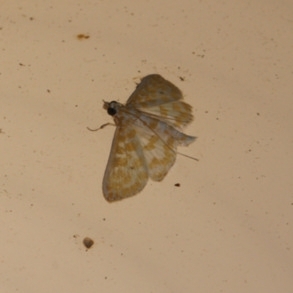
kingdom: Animalia
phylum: Arthropoda
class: Insecta
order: Lepidoptera
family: Crambidae
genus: Leucochroma
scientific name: Leucochroma corope
